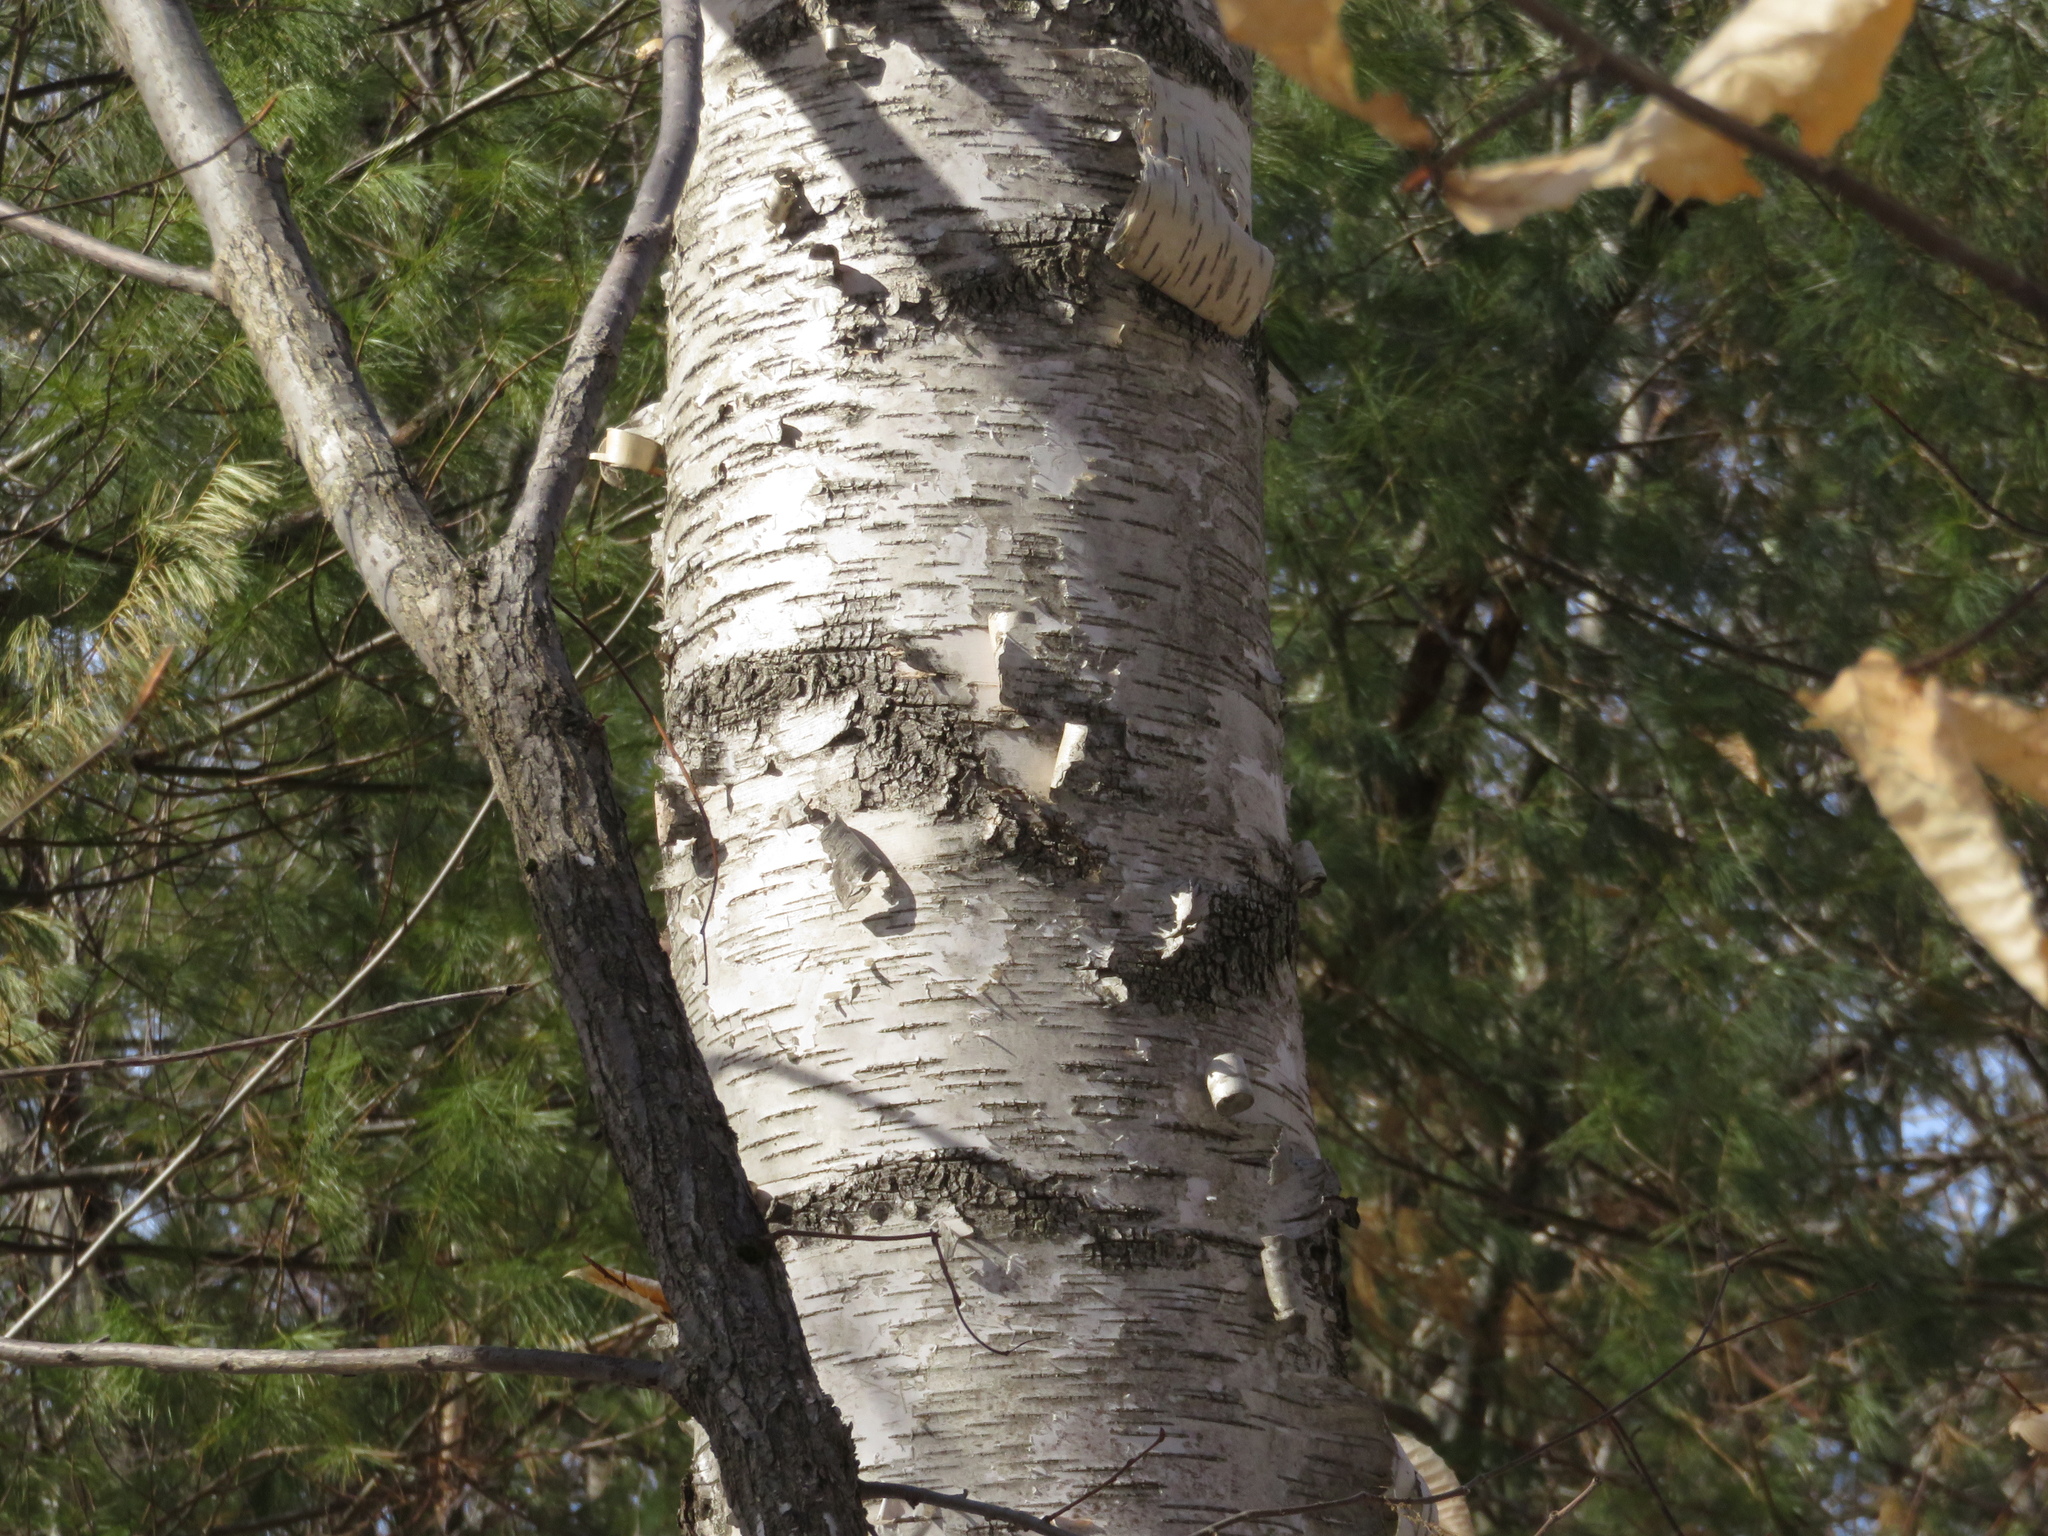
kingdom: Plantae
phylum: Tracheophyta
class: Magnoliopsida
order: Fagales
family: Betulaceae
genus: Betula
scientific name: Betula papyrifera
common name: Paper birch
